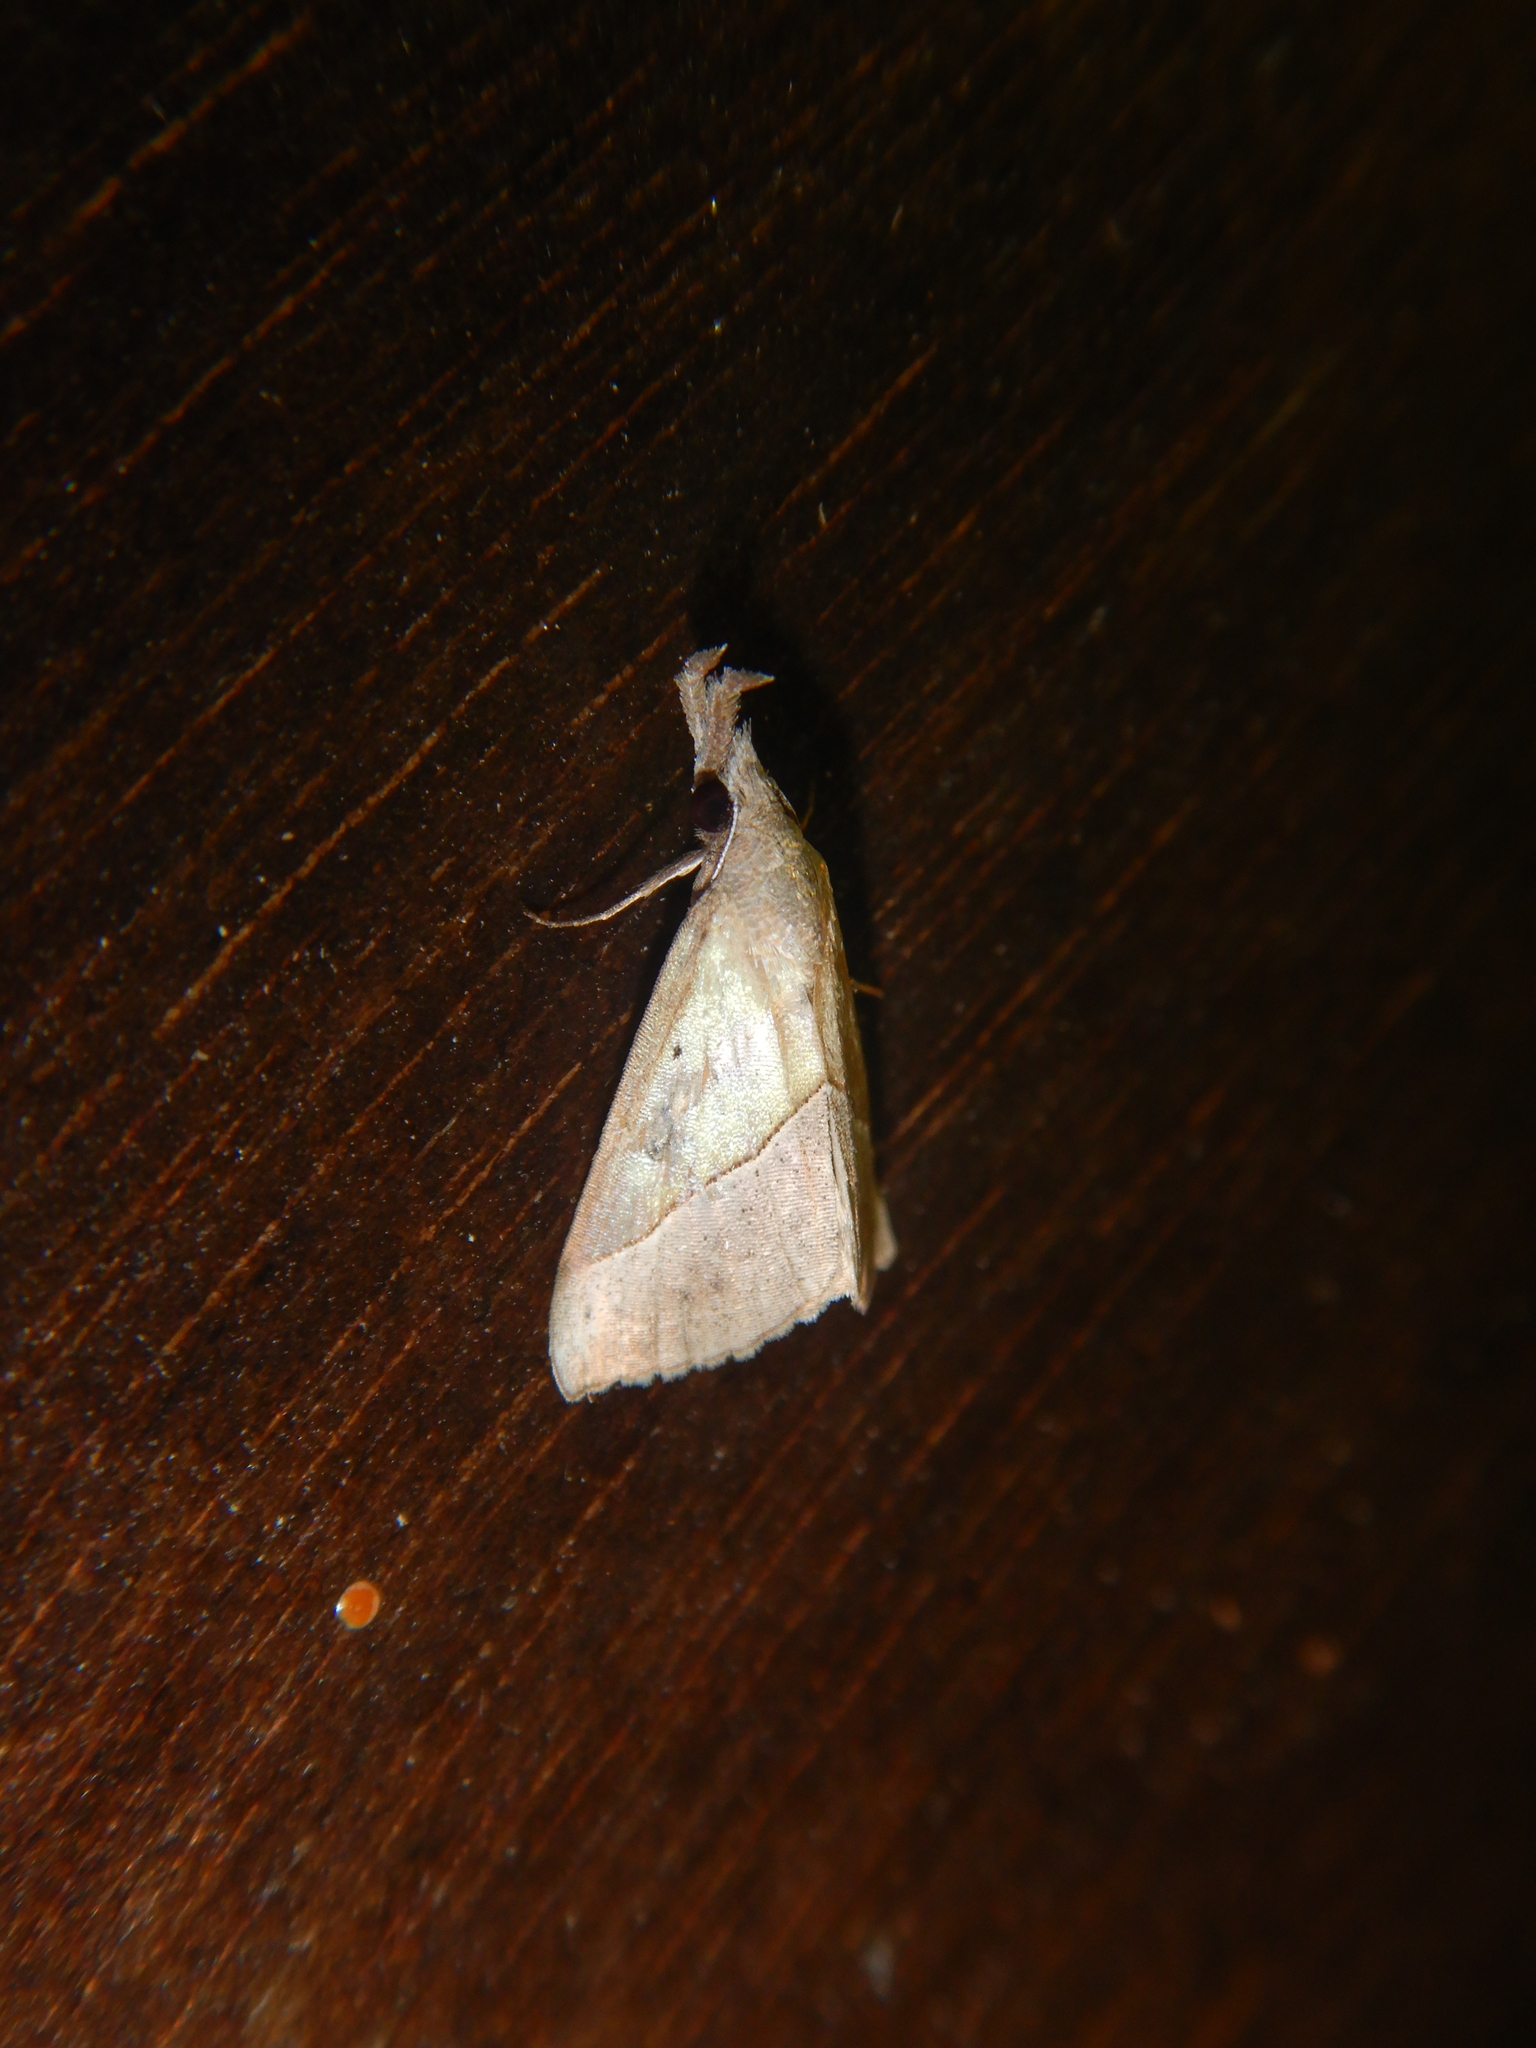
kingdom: Animalia
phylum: Arthropoda
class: Insecta
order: Lepidoptera
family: Erebidae
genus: Hypena
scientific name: Hypena lividalis
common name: Chevron snout
